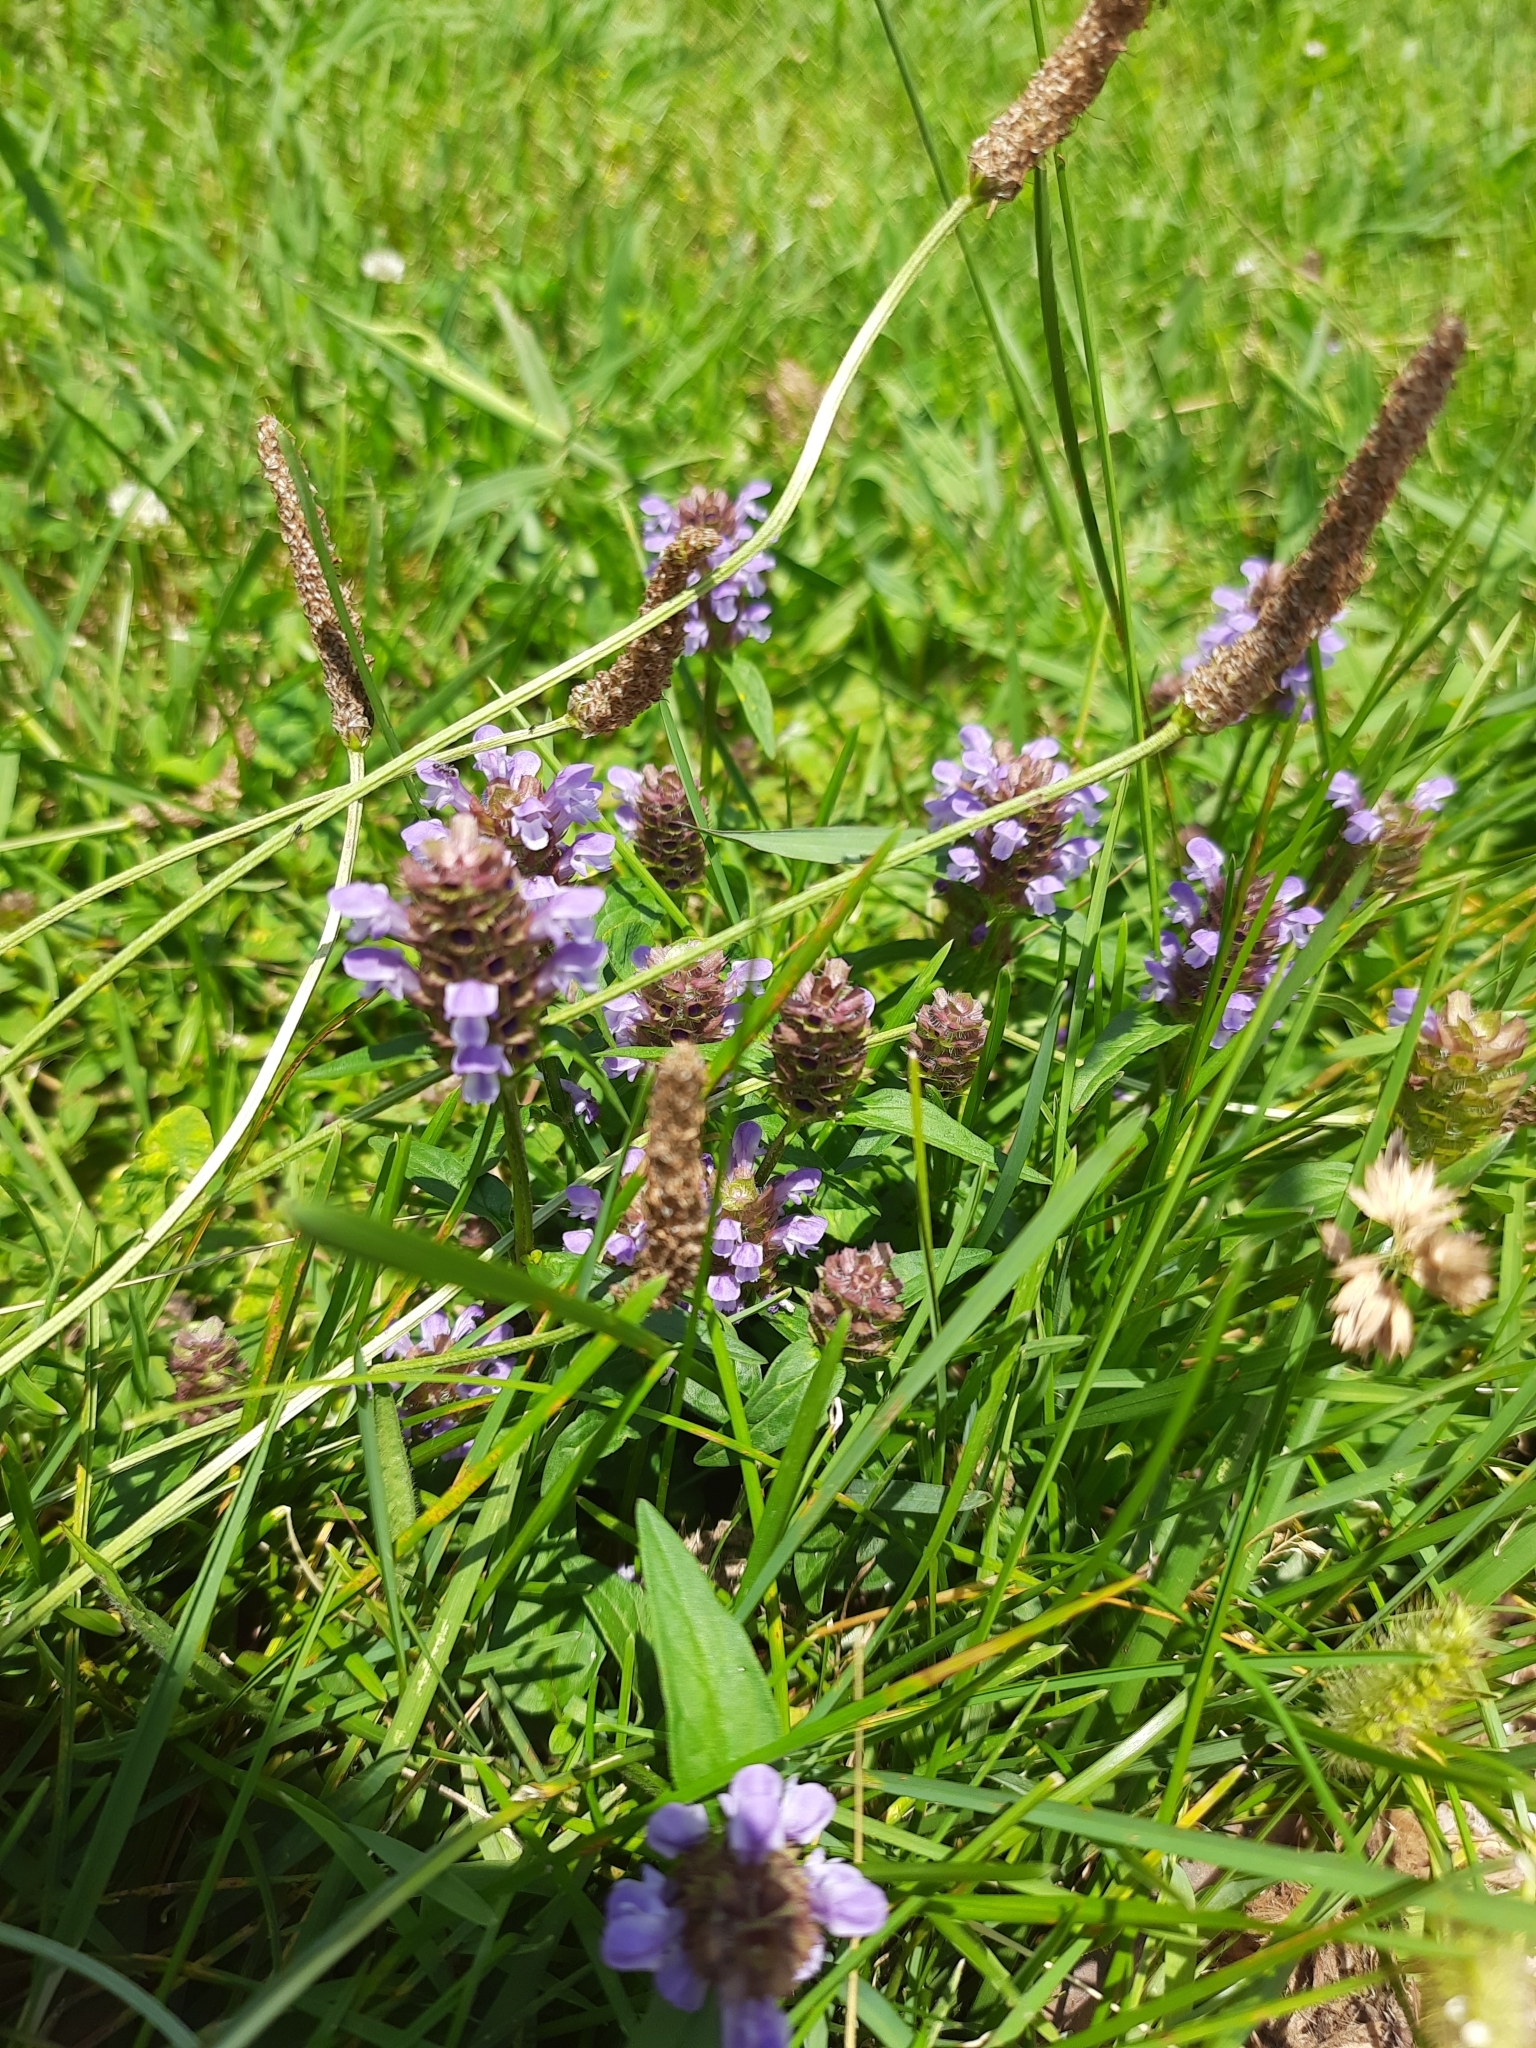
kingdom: Plantae
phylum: Tracheophyta
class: Magnoliopsida
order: Lamiales
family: Lamiaceae
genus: Prunella
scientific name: Prunella vulgaris
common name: Heal-all
